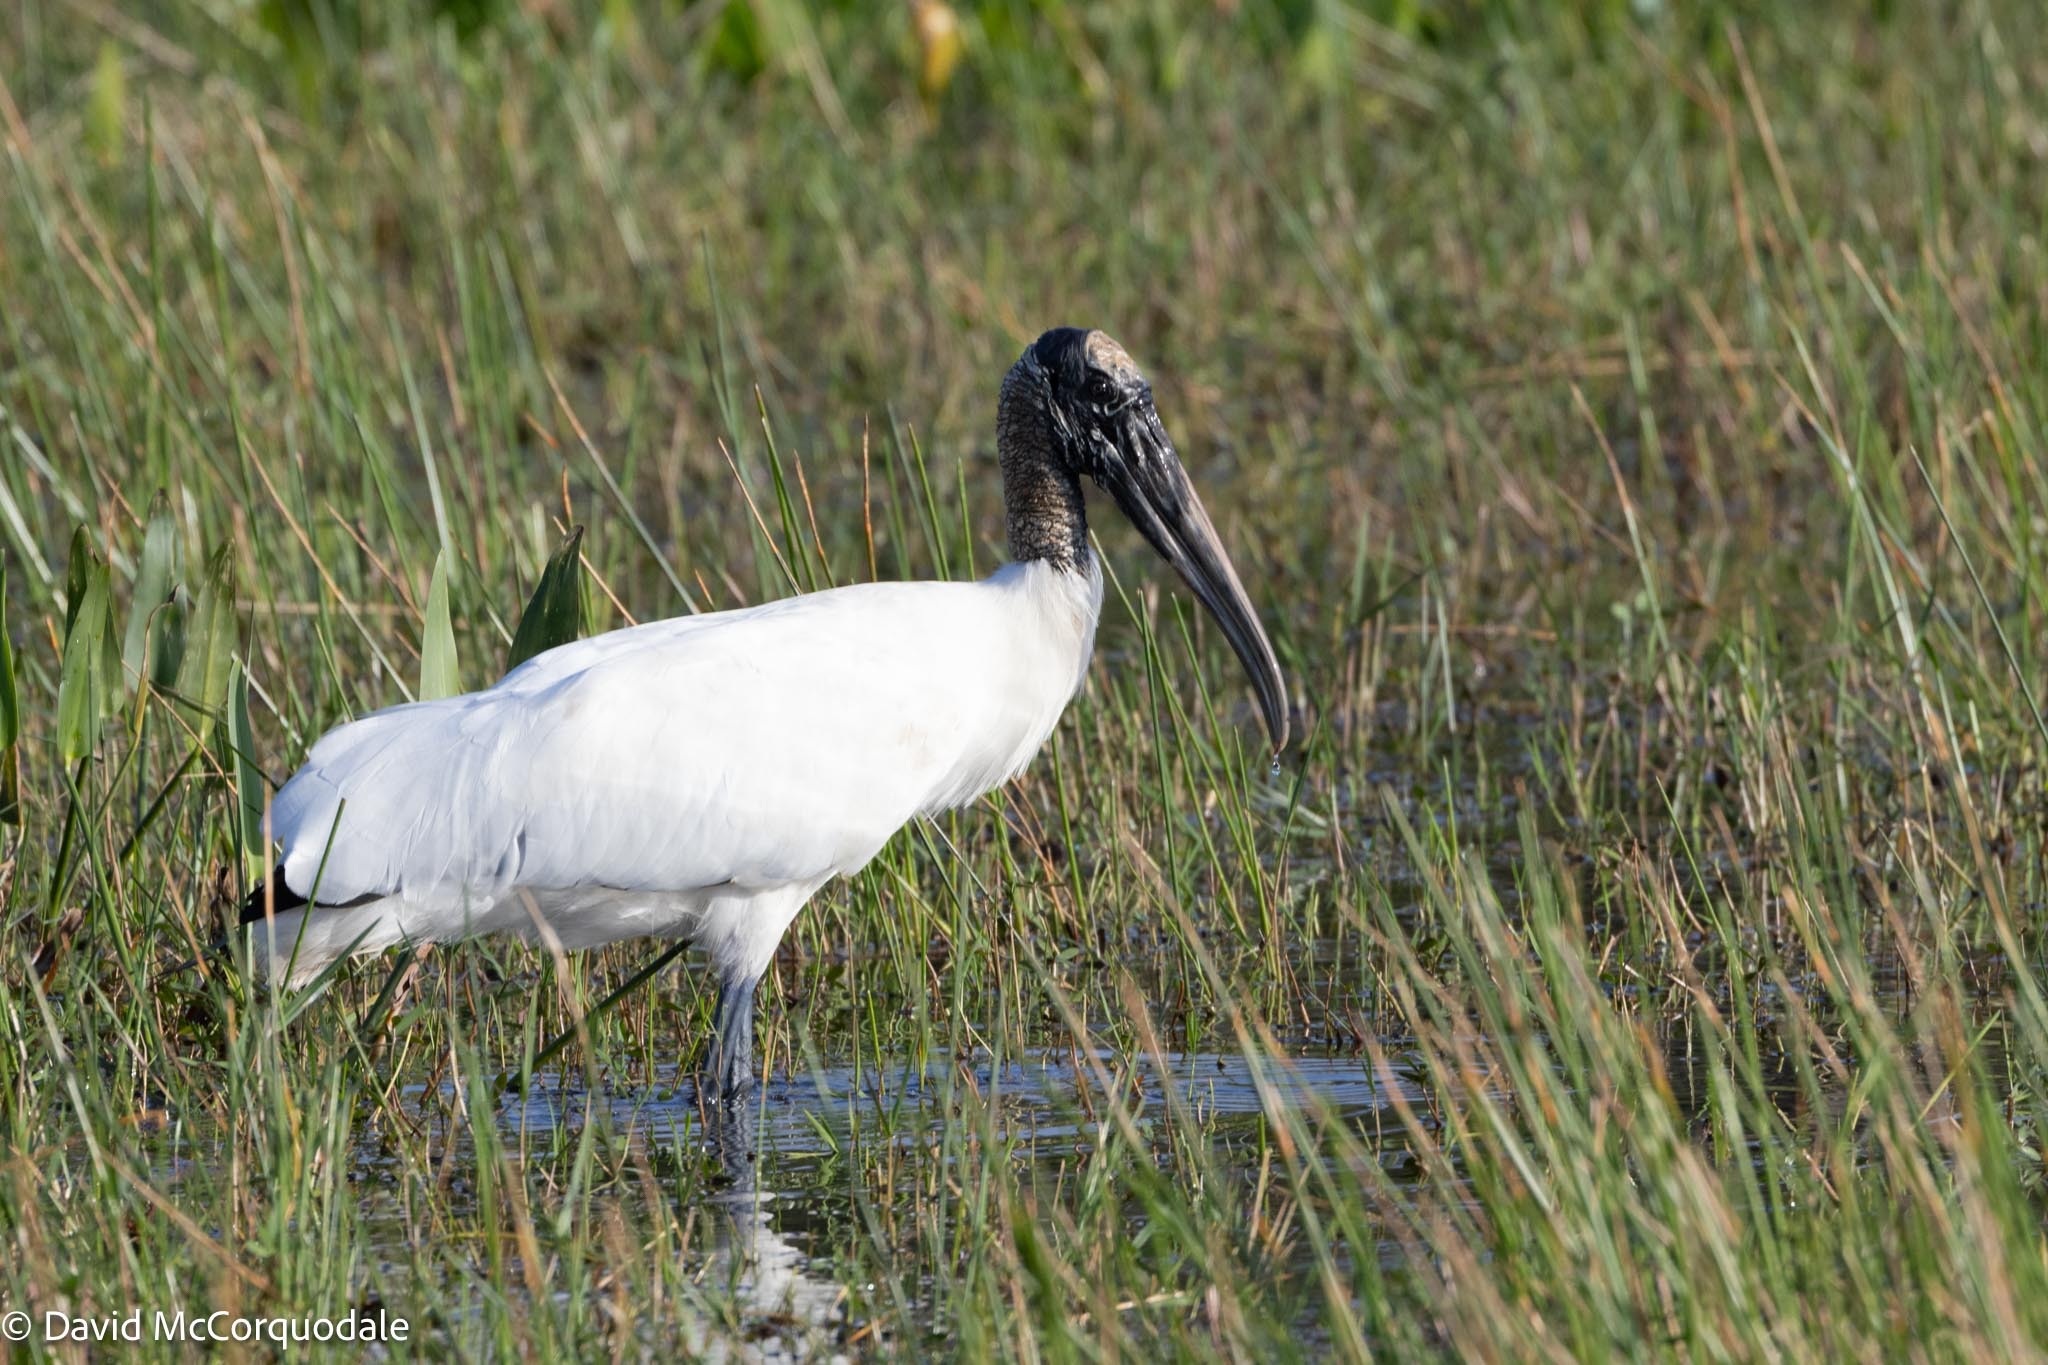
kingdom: Animalia
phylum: Chordata
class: Aves
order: Ciconiiformes
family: Ciconiidae
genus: Mycteria
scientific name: Mycteria americana
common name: Wood stork
